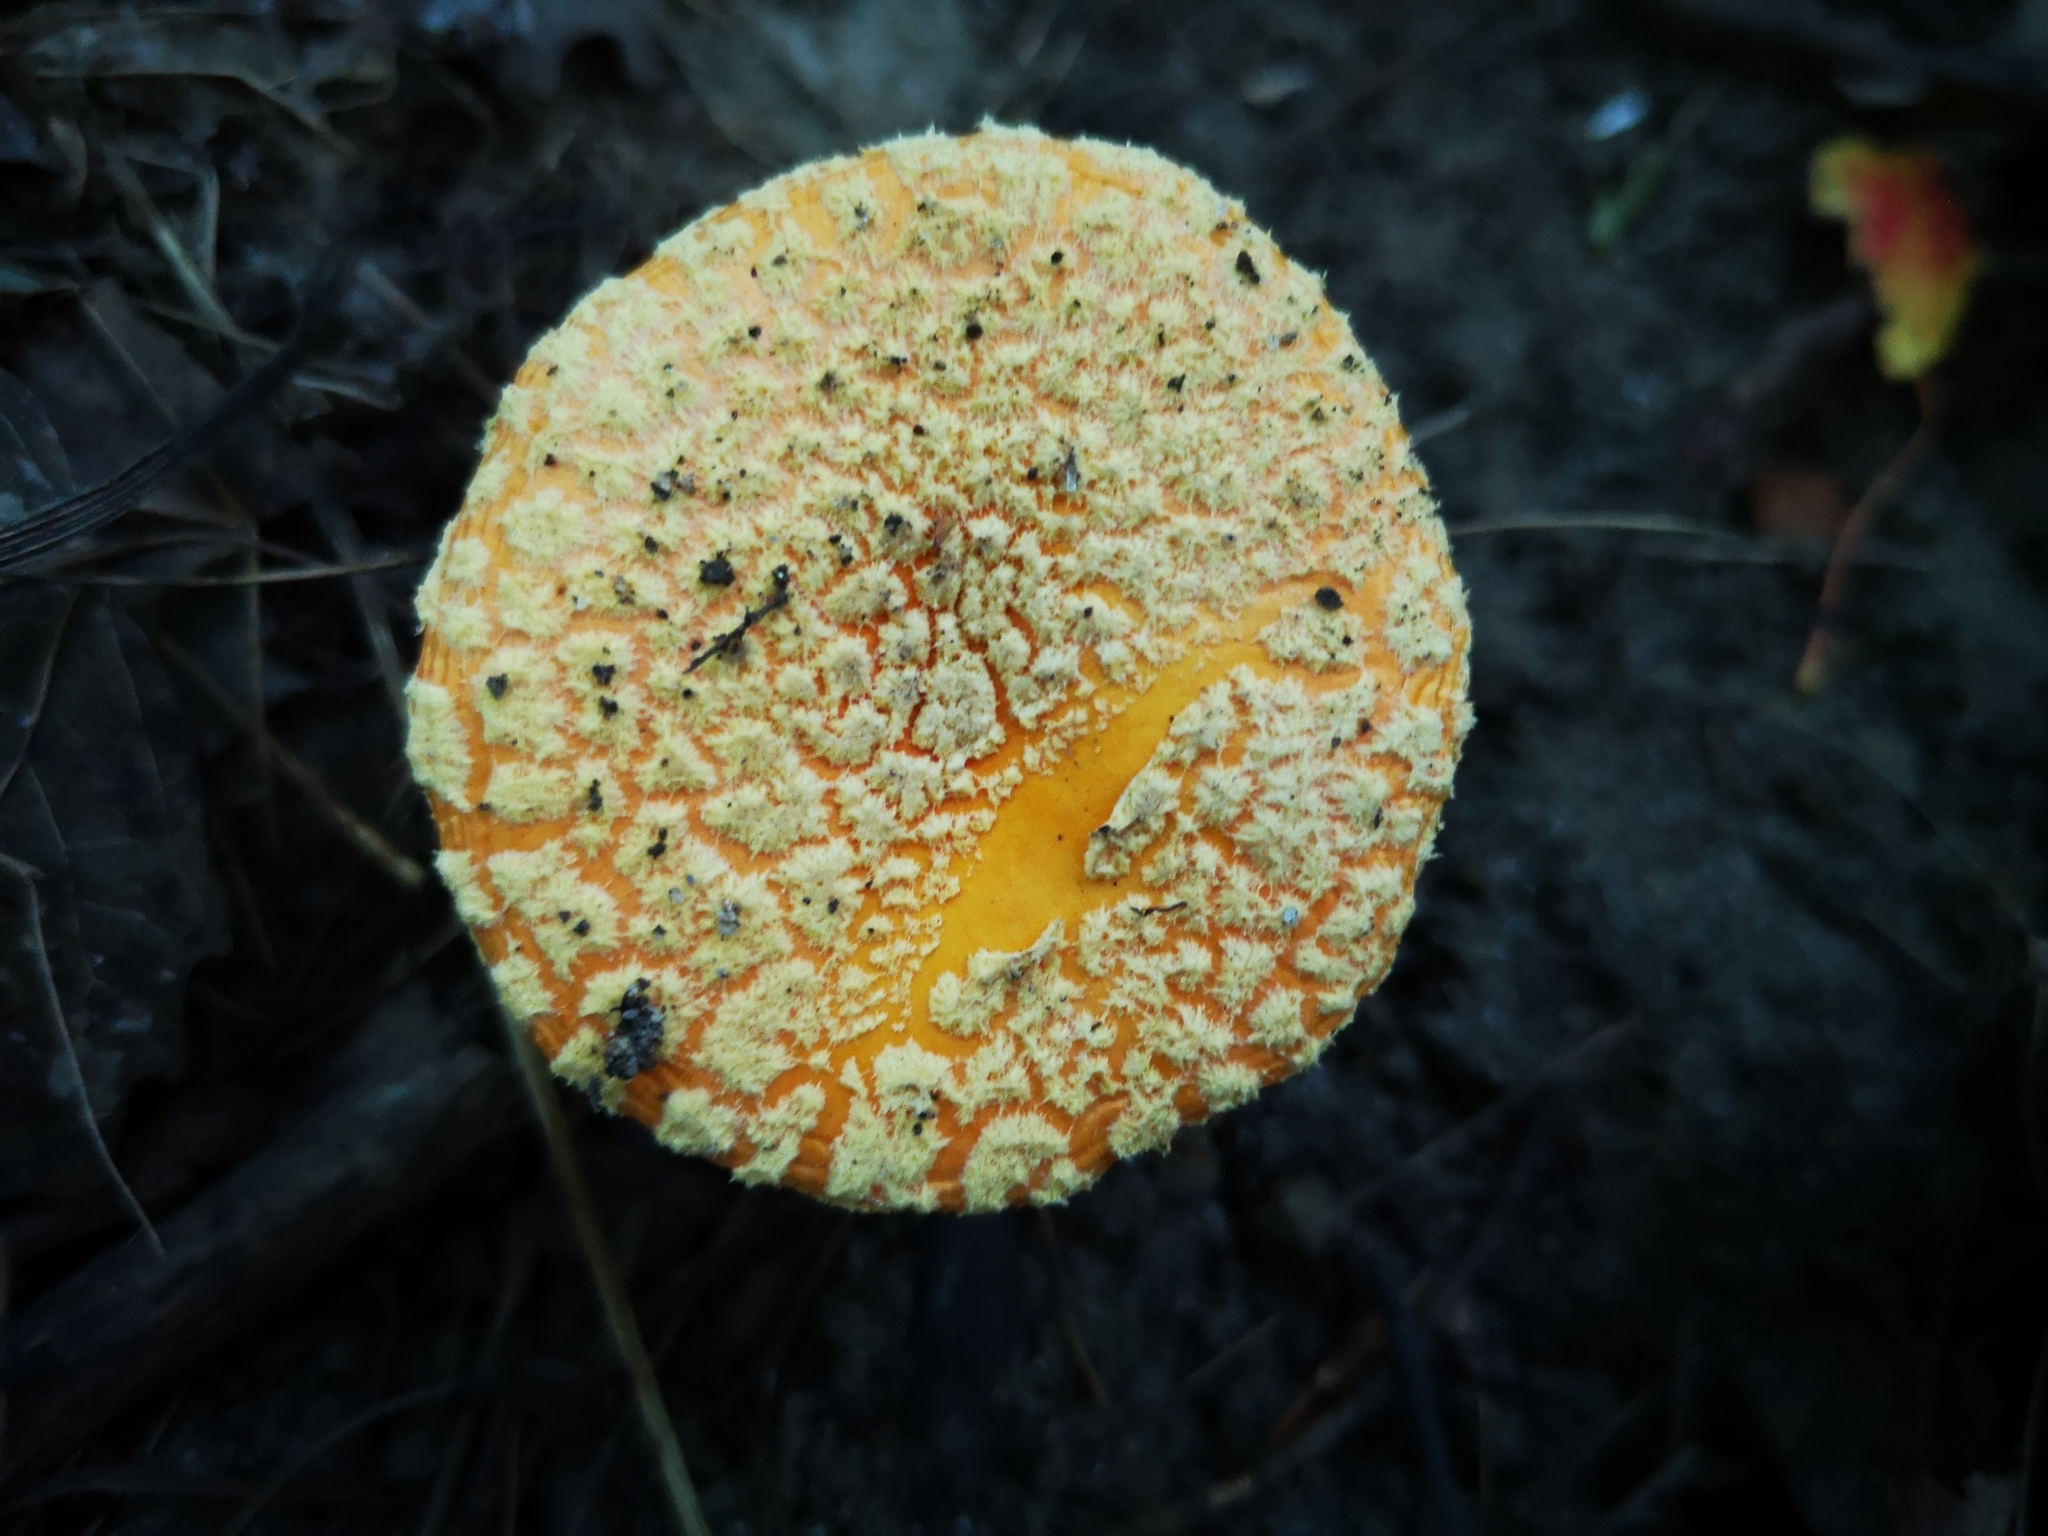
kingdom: Fungi
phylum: Basidiomycota
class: Agaricomycetes
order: Agaricales
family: Amanitaceae
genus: Amanita
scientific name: Amanita muscaria
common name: Fly agaric
